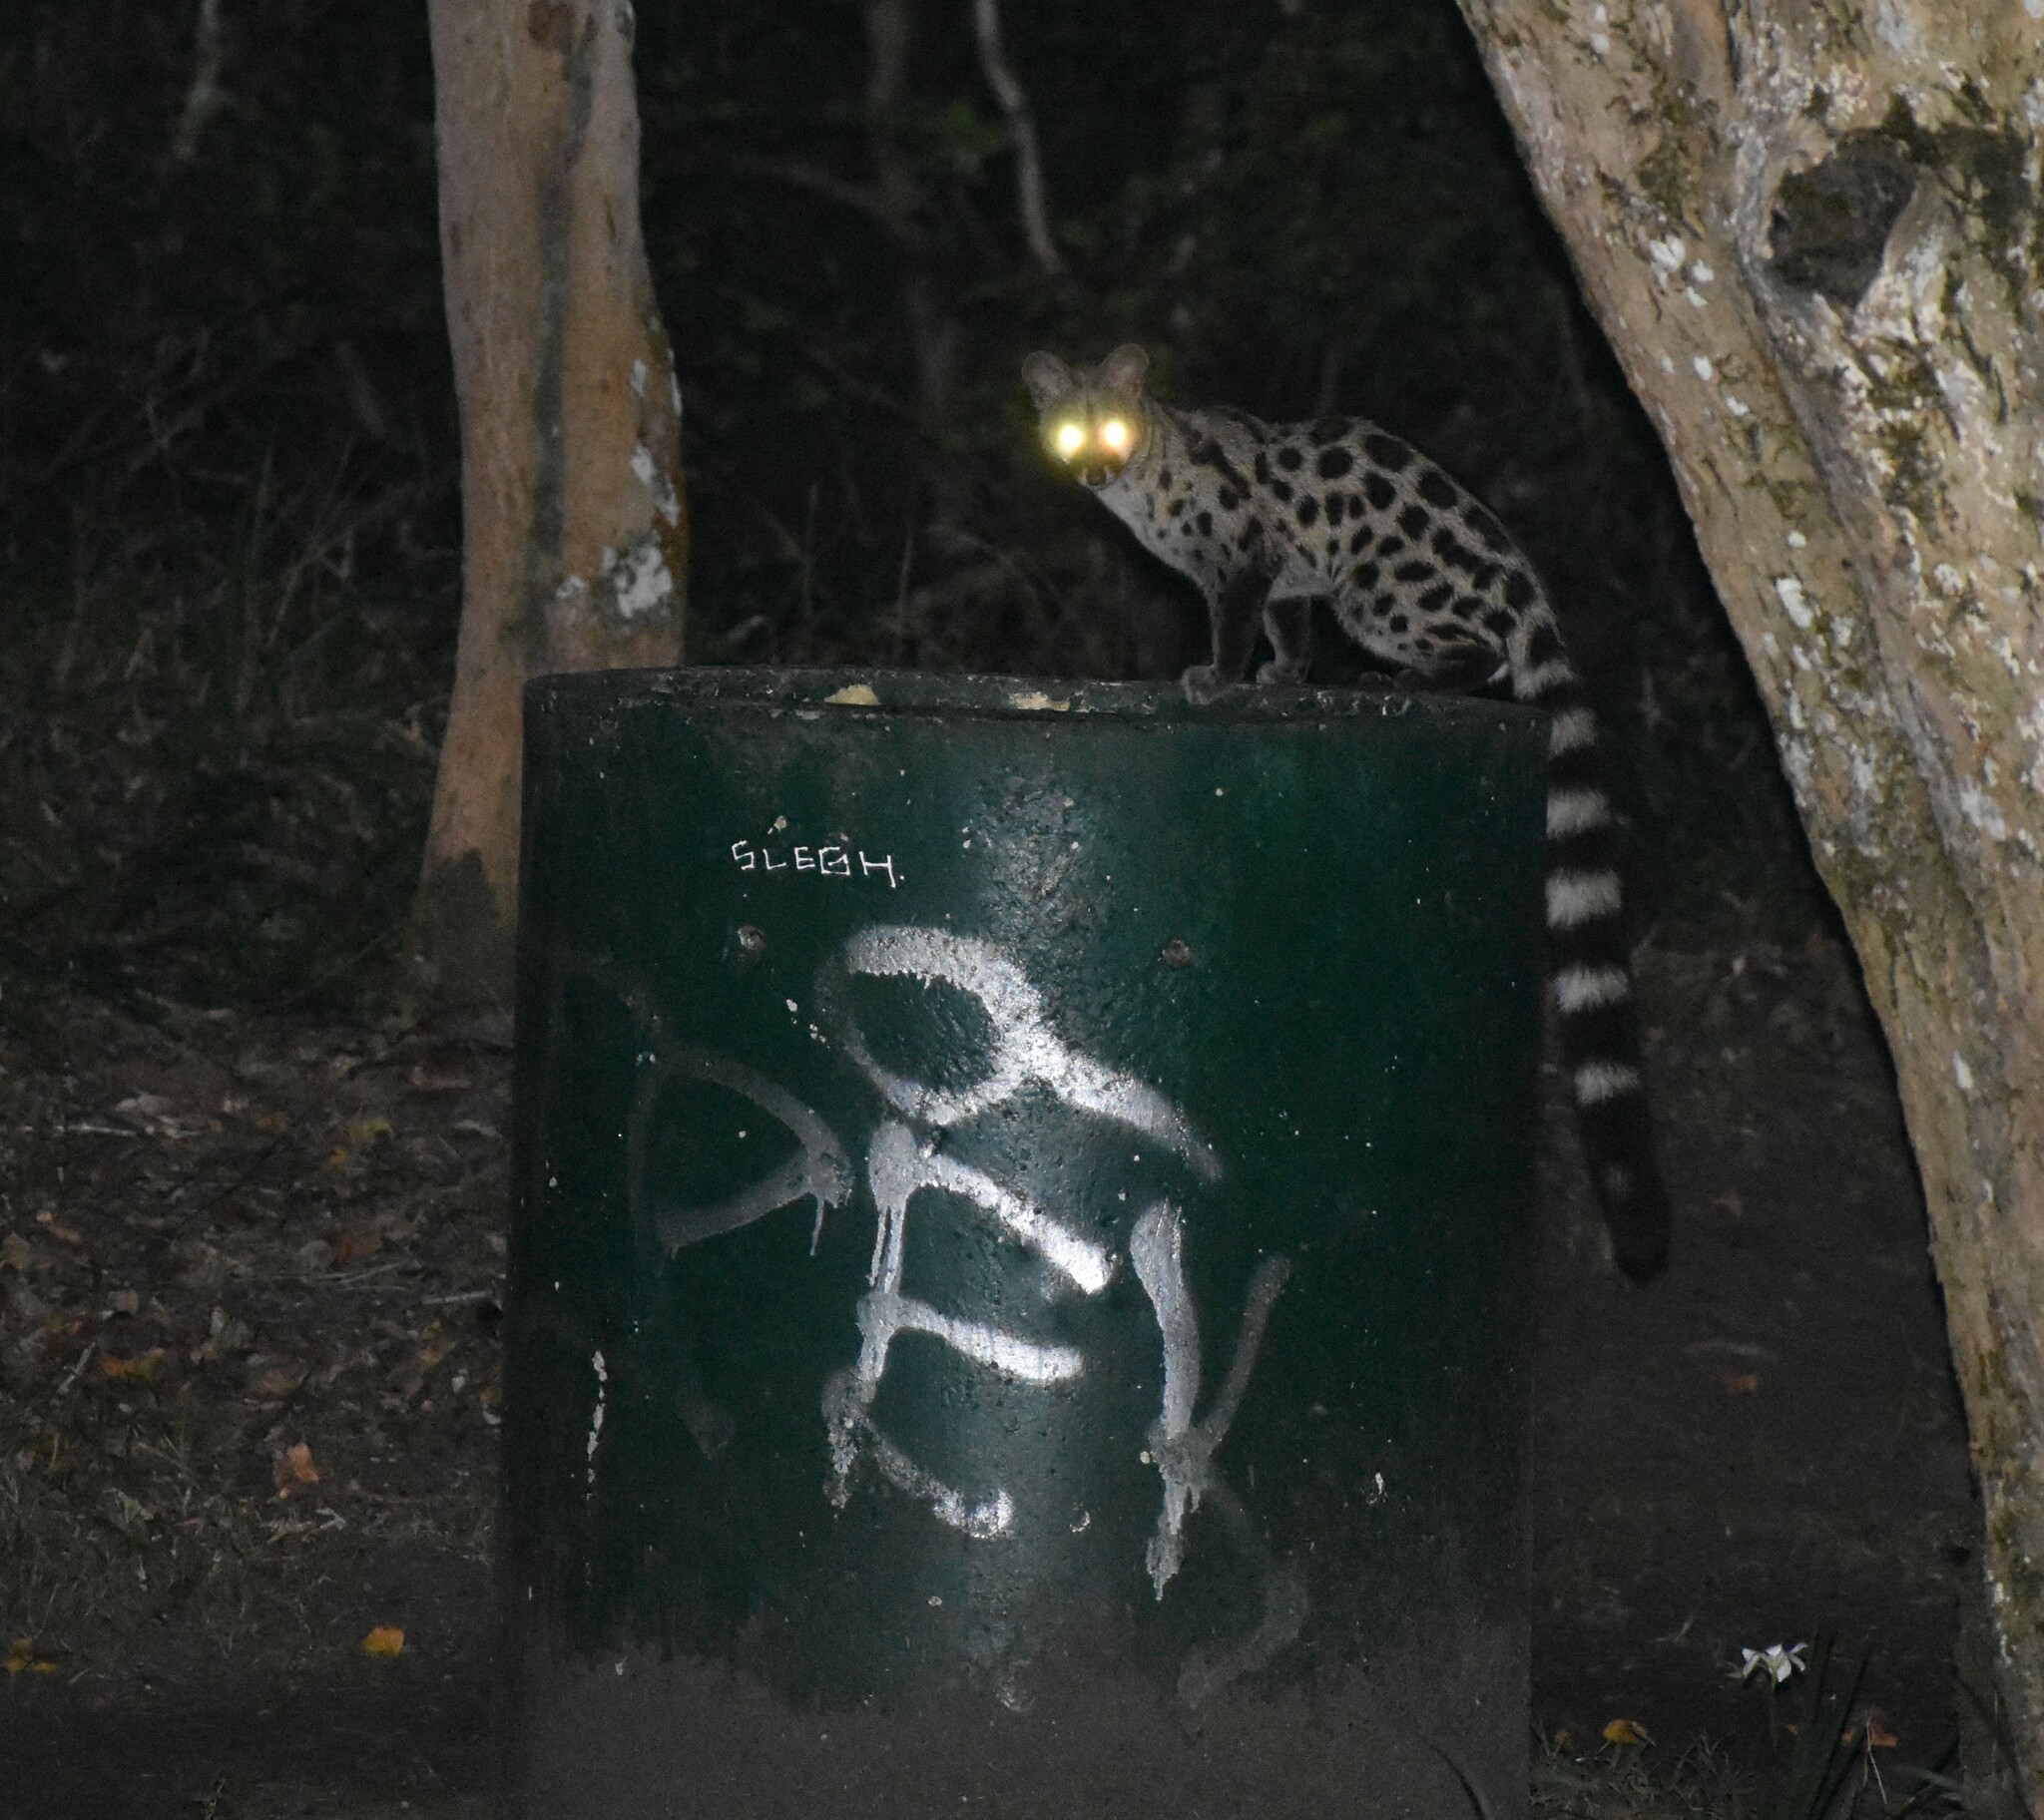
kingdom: Animalia
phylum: Chordata
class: Mammalia
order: Carnivora
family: Viverridae
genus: Genetta
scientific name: Genetta tigrina
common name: Cape genet
